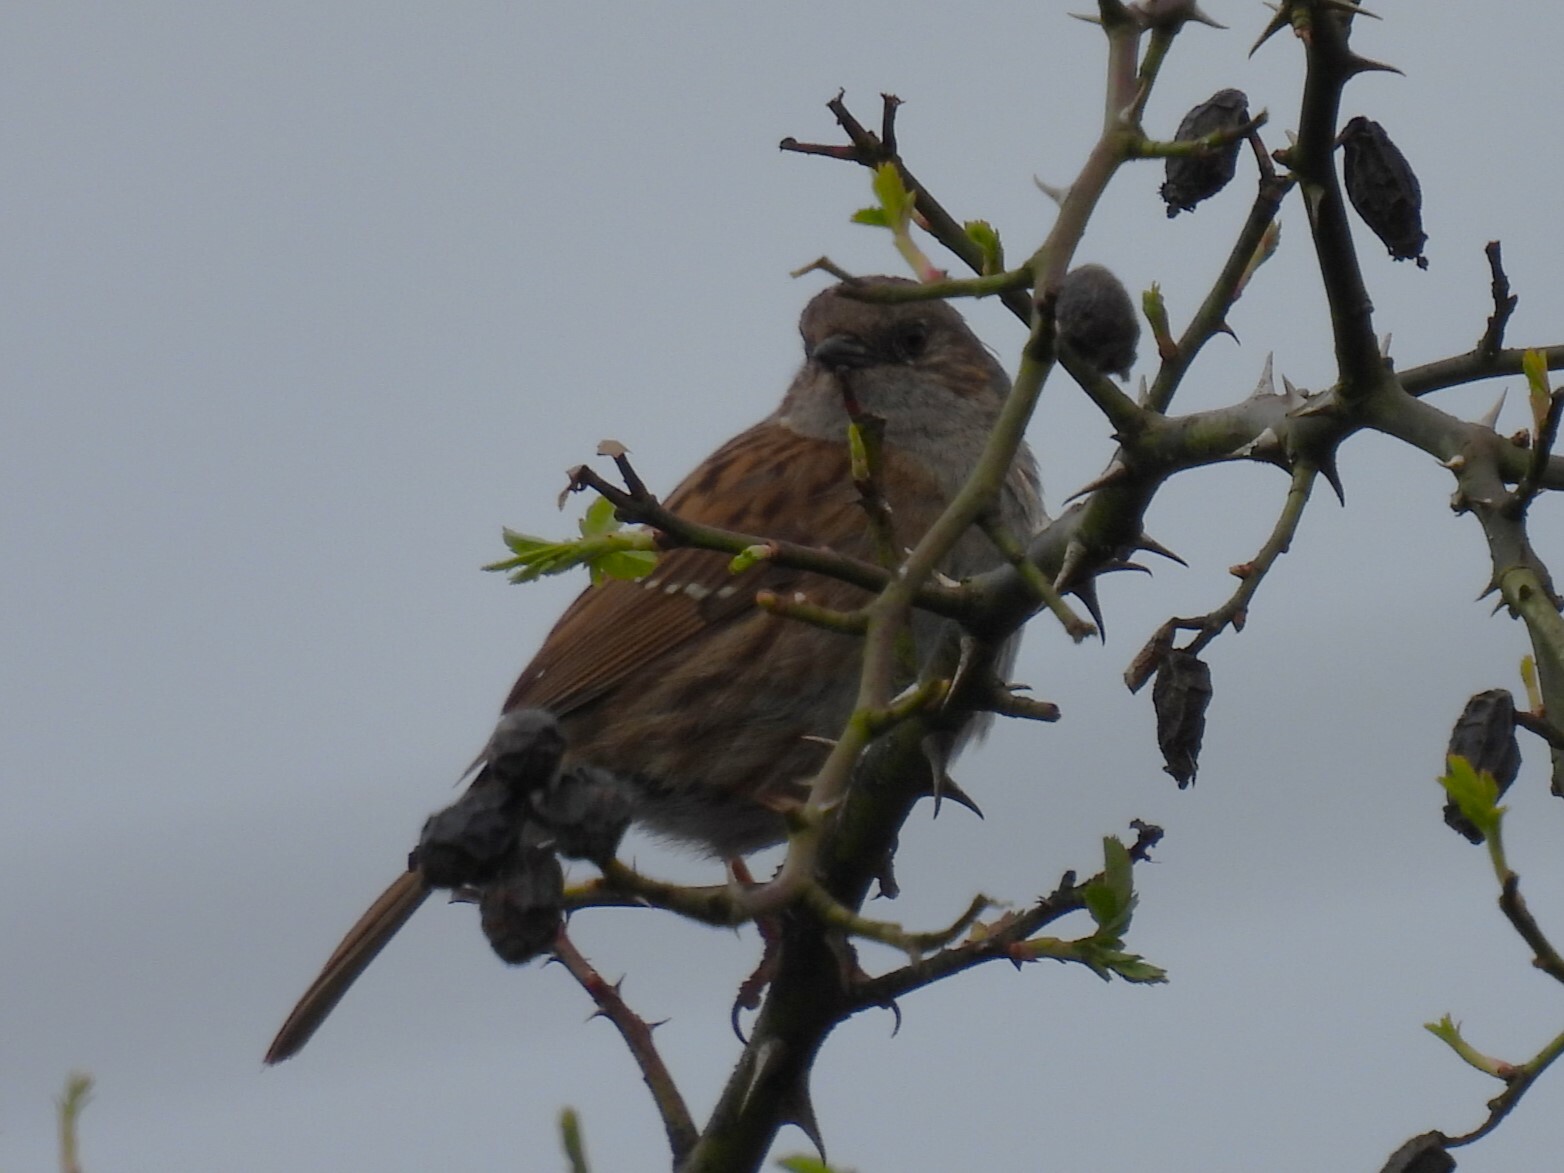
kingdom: Animalia
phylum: Chordata
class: Aves
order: Passeriformes
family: Prunellidae
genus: Prunella
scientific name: Prunella modularis
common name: Dunnock
